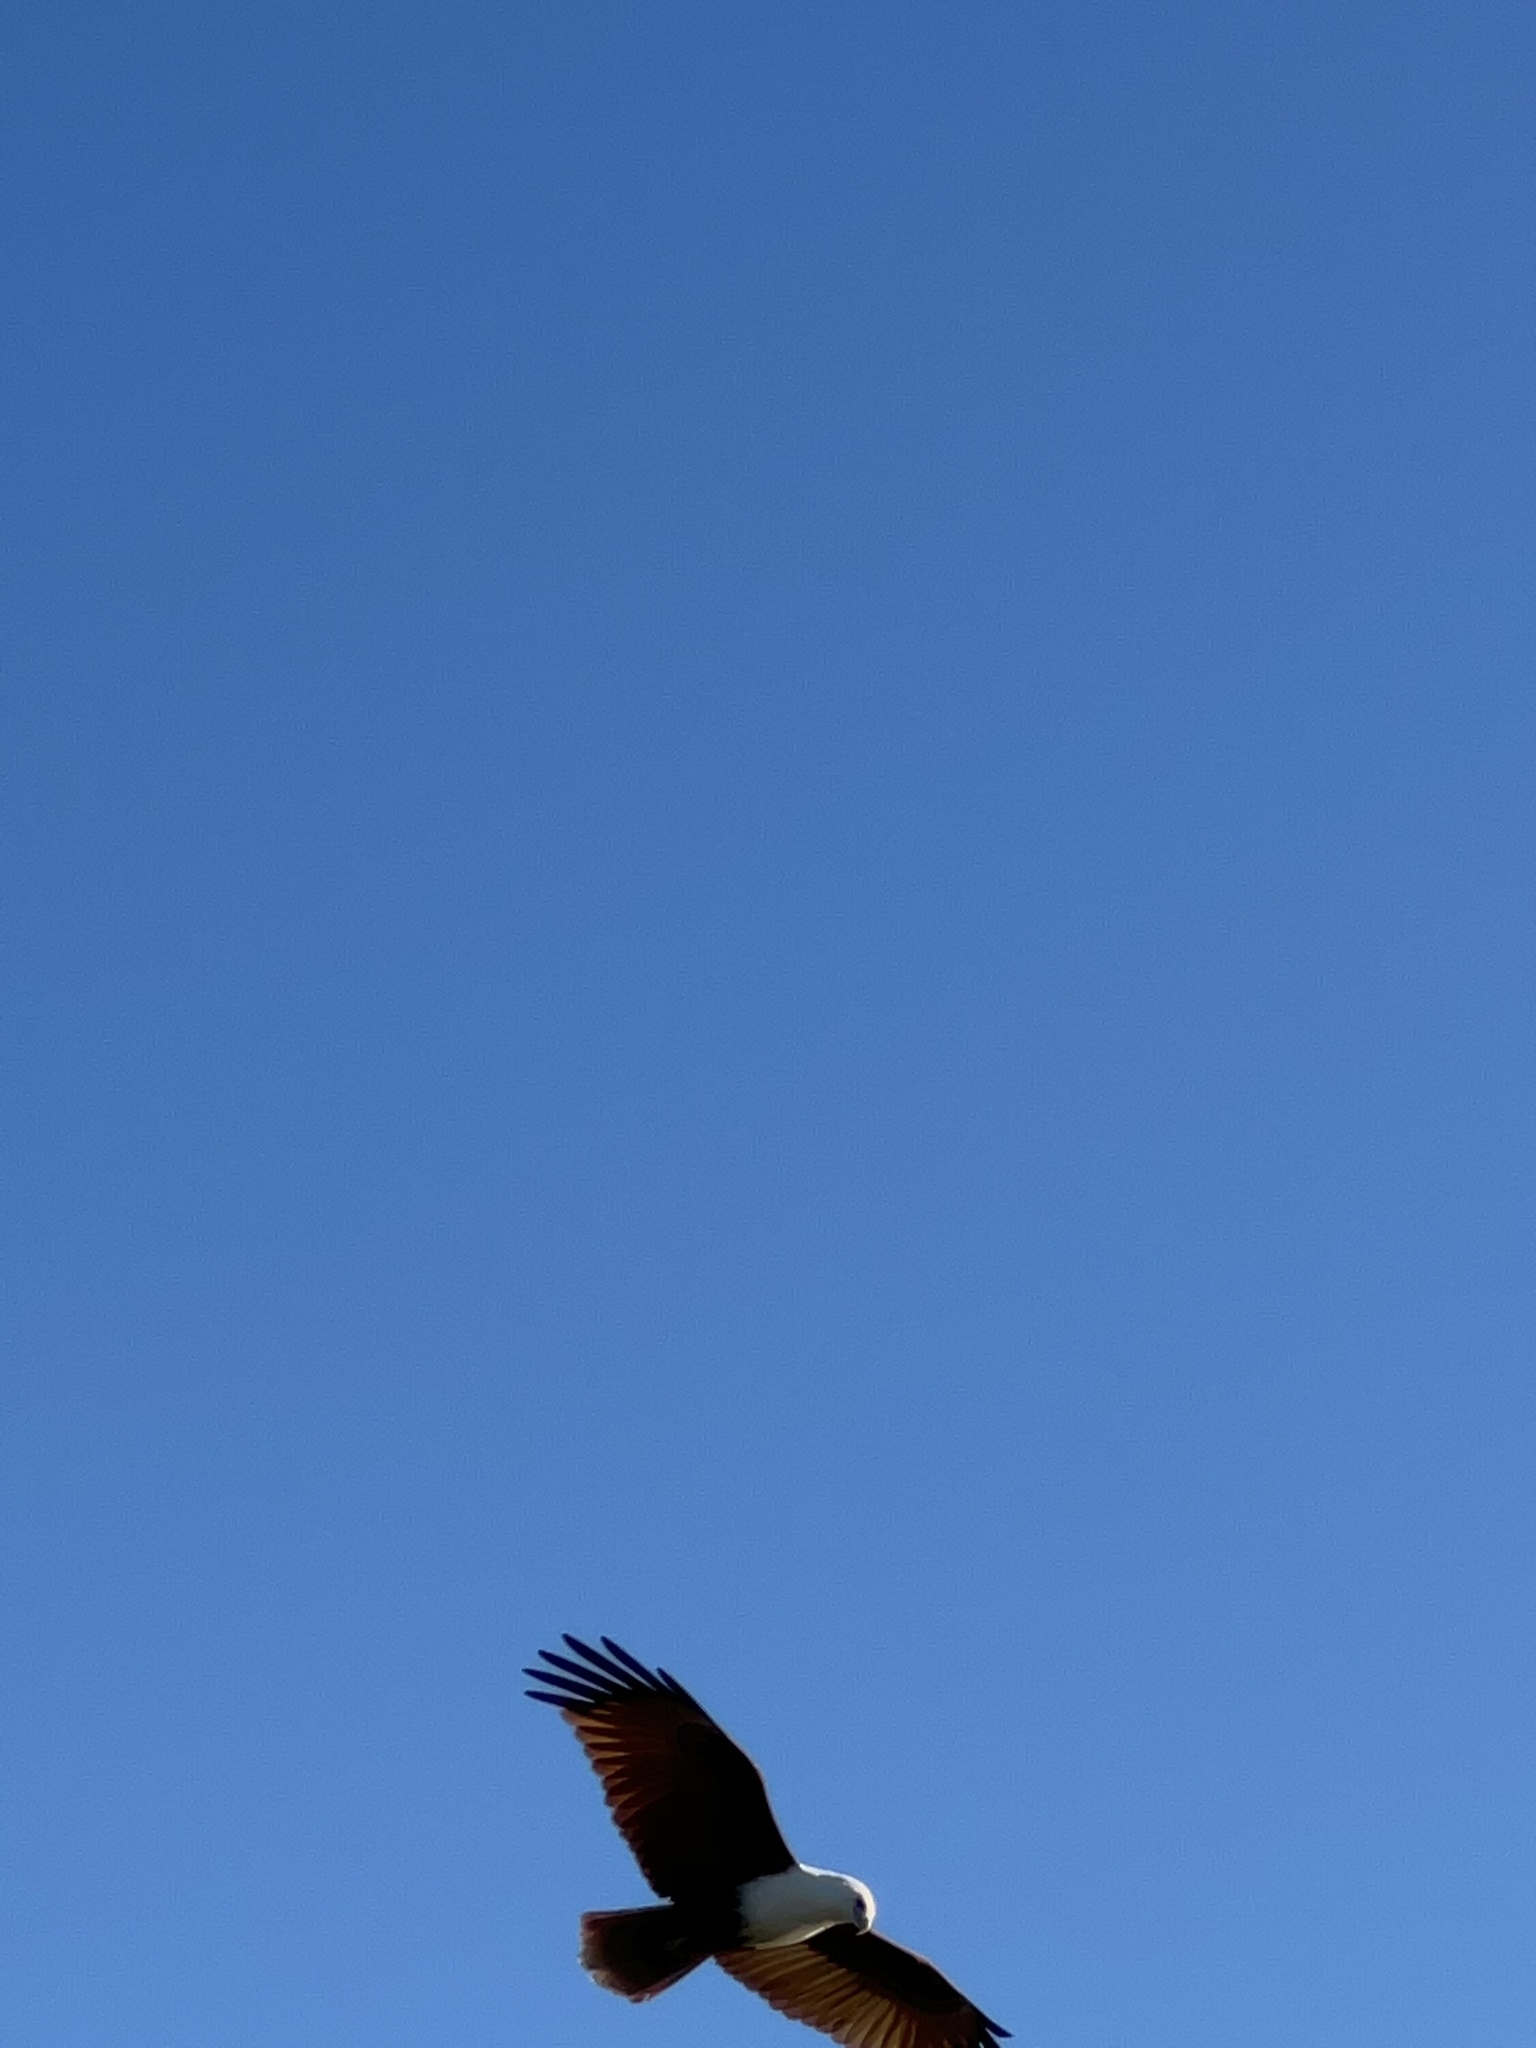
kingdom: Animalia
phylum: Chordata
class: Aves
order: Accipitriformes
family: Accipitridae
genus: Haliastur
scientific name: Haliastur indus
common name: Brahminy kite
